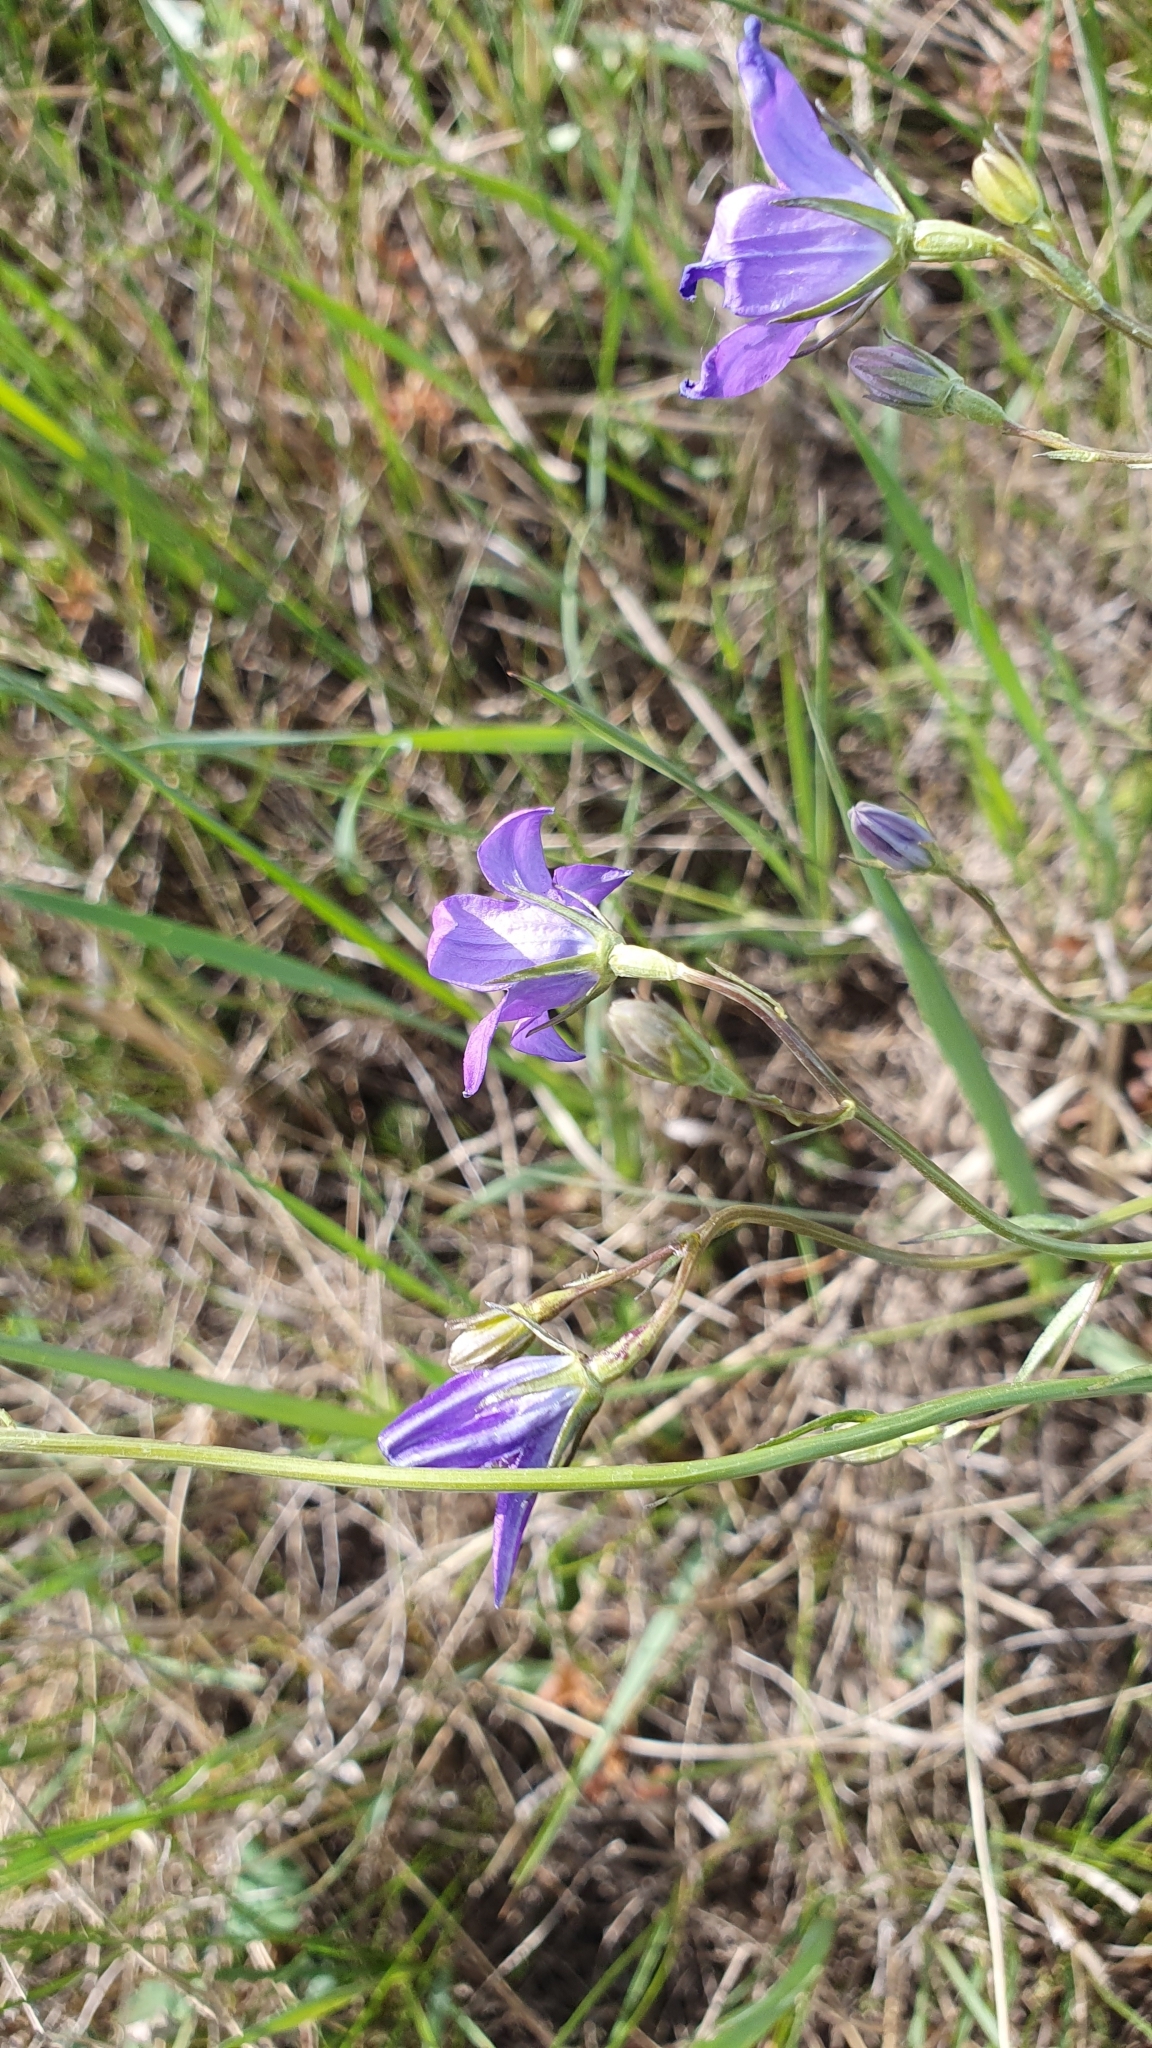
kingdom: Plantae
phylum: Tracheophyta
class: Magnoliopsida
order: Asterales
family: Campanulaceae
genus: Campanula
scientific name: Campanula stevenii
